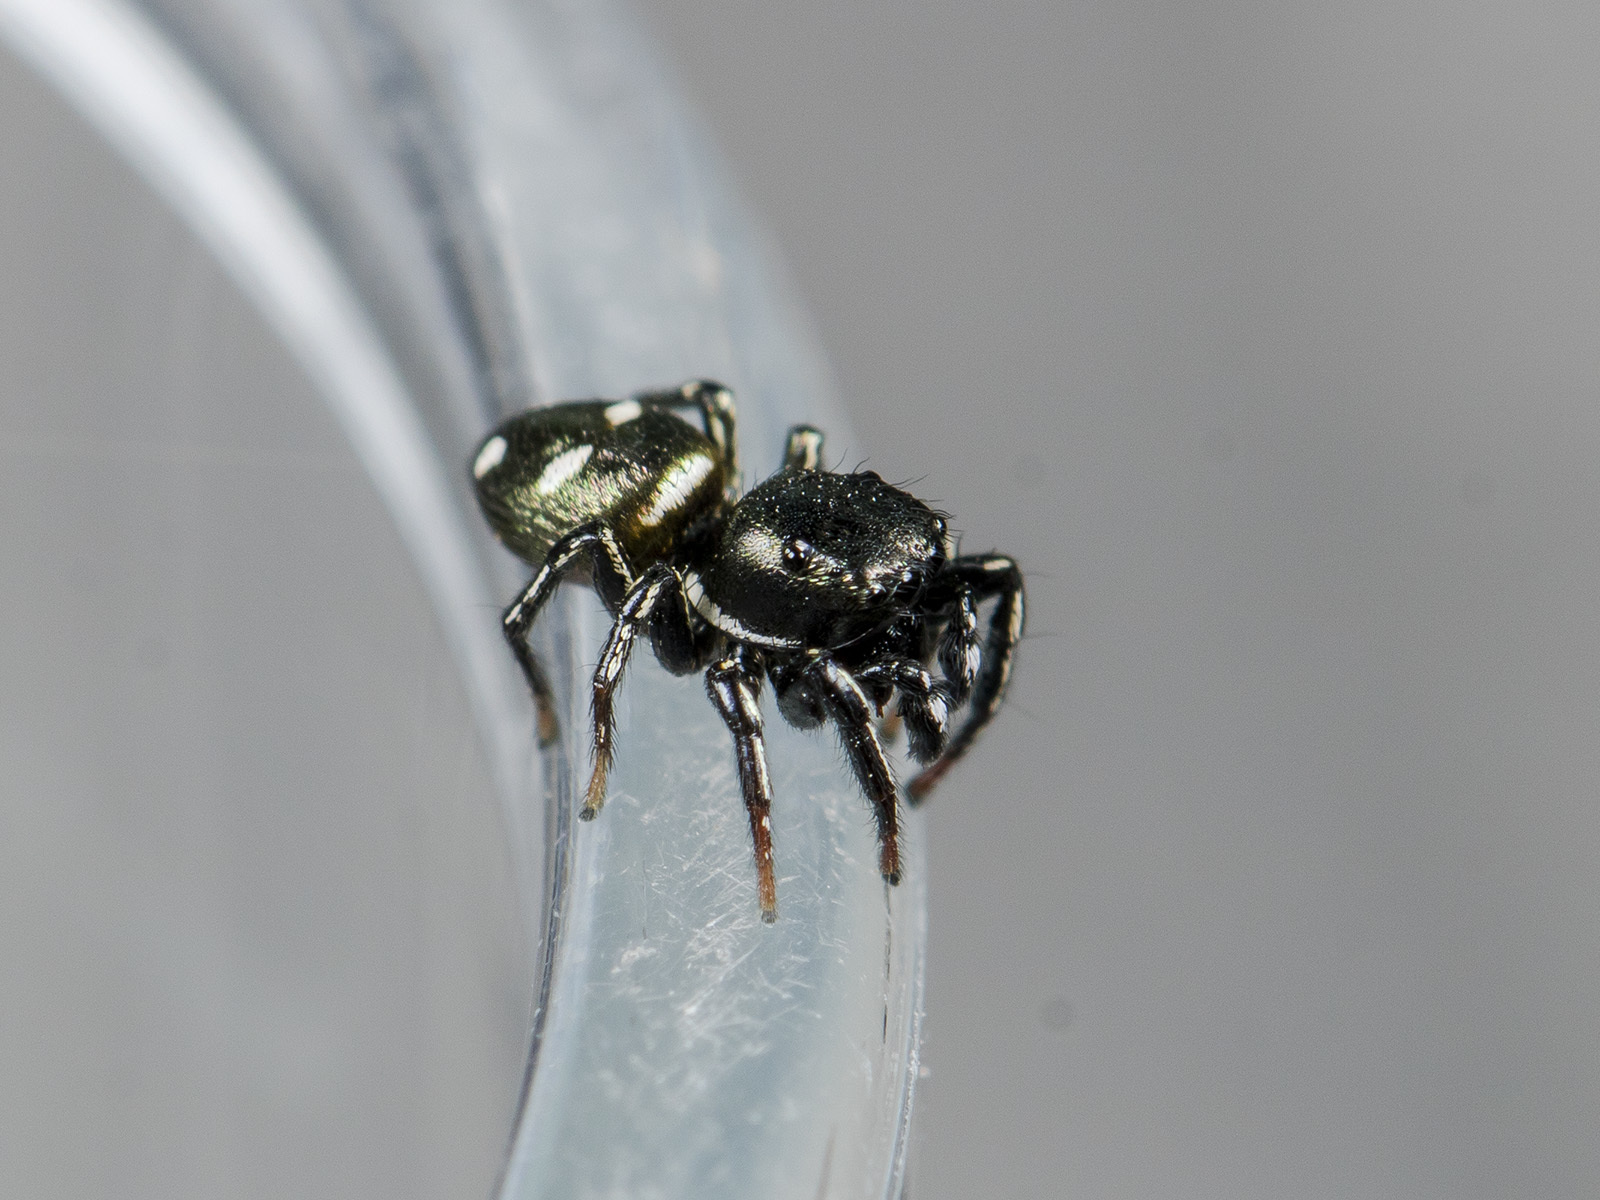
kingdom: Animalia
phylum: Arthropoda
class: Arachnida
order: Araneae
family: Salticidae
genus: Heliophanus
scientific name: Heliophanus chovdensis
